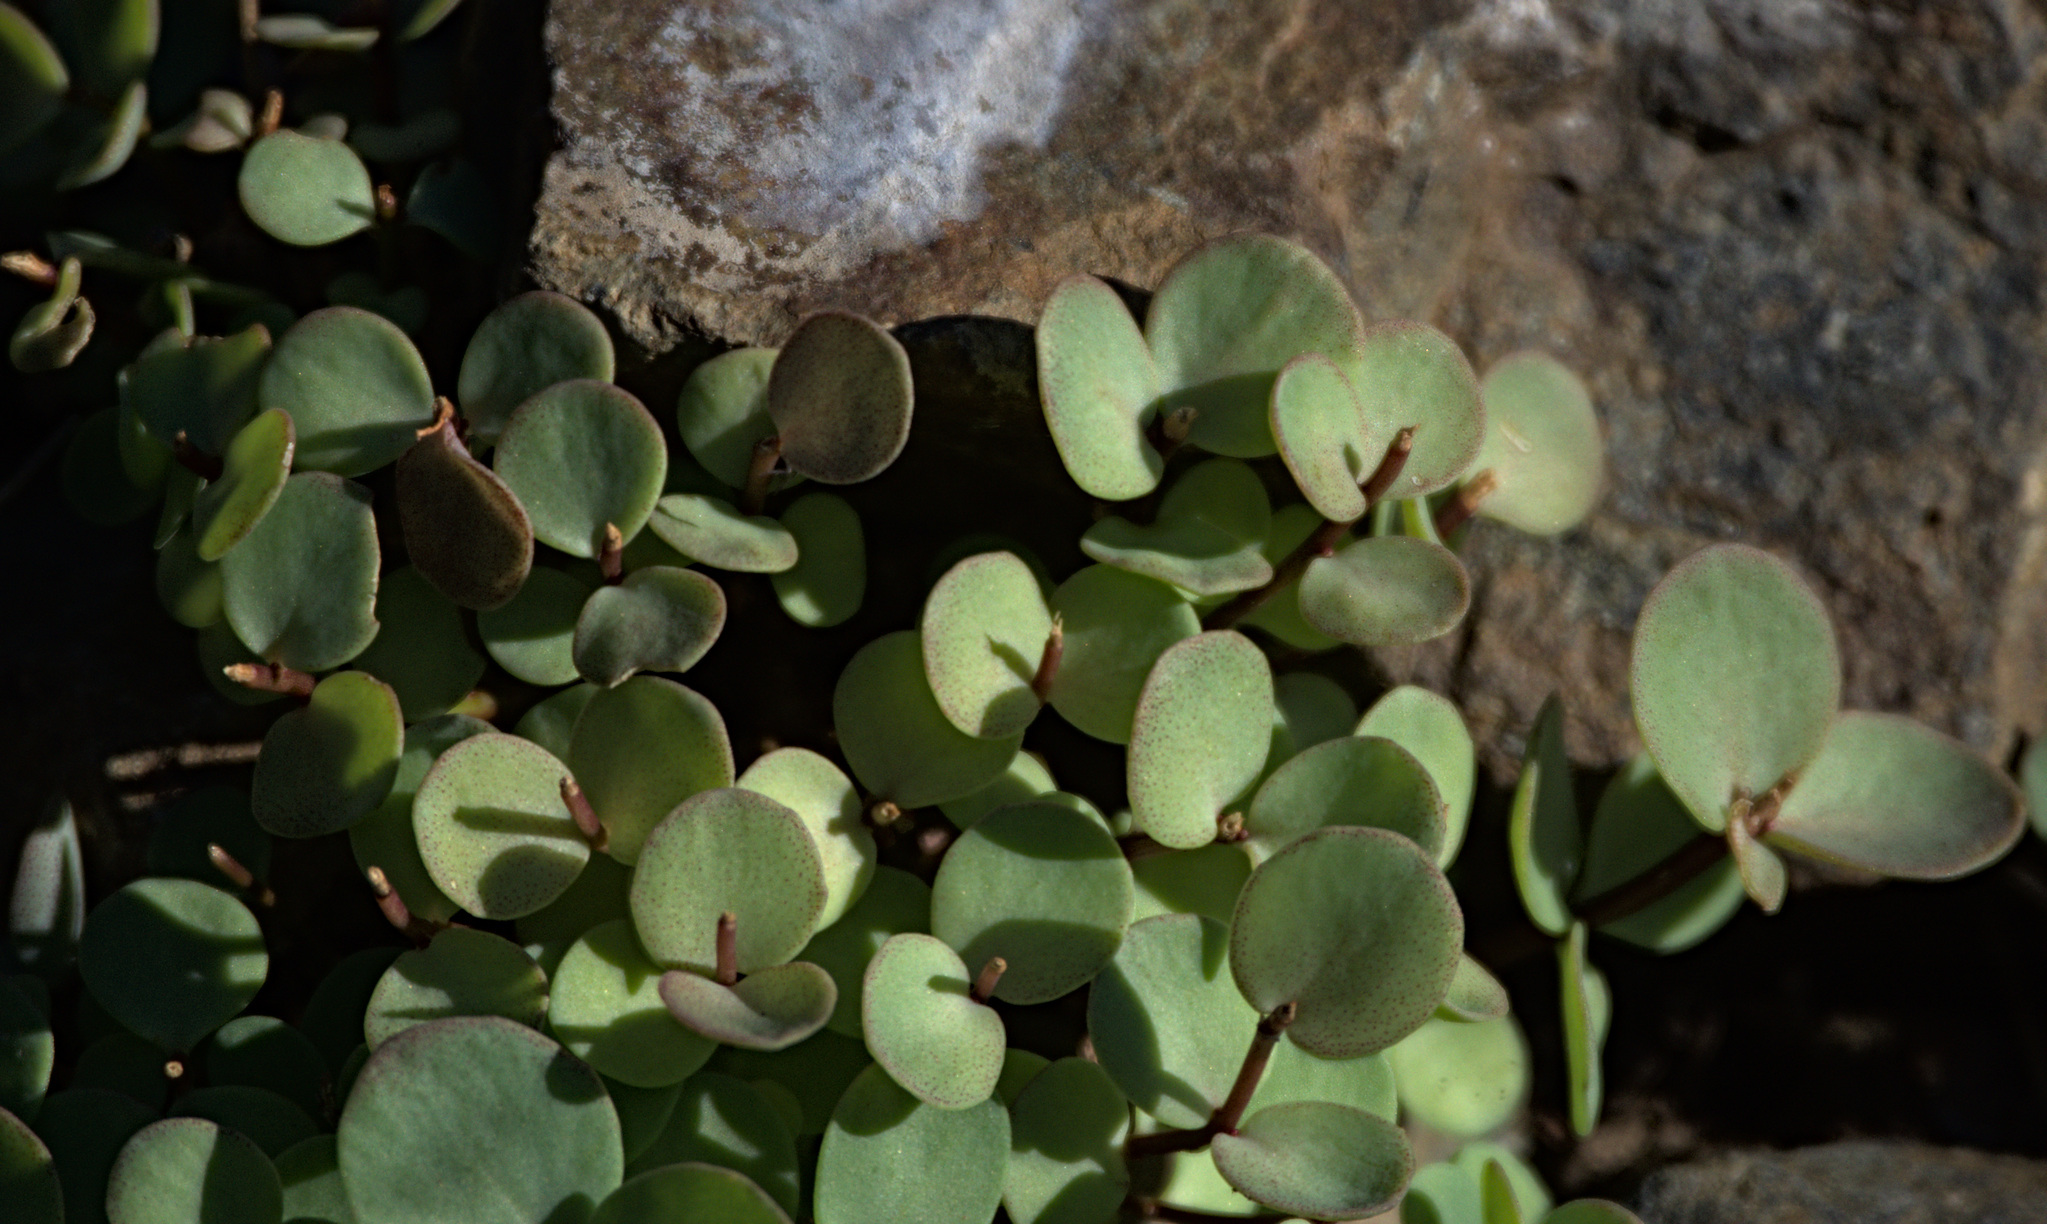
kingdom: Plantae
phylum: Tracheophyta
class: Magnoliopsida
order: Saxifragales
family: Crassulaceae
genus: Hylotelephium
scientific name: Hylotelephium ewersii
